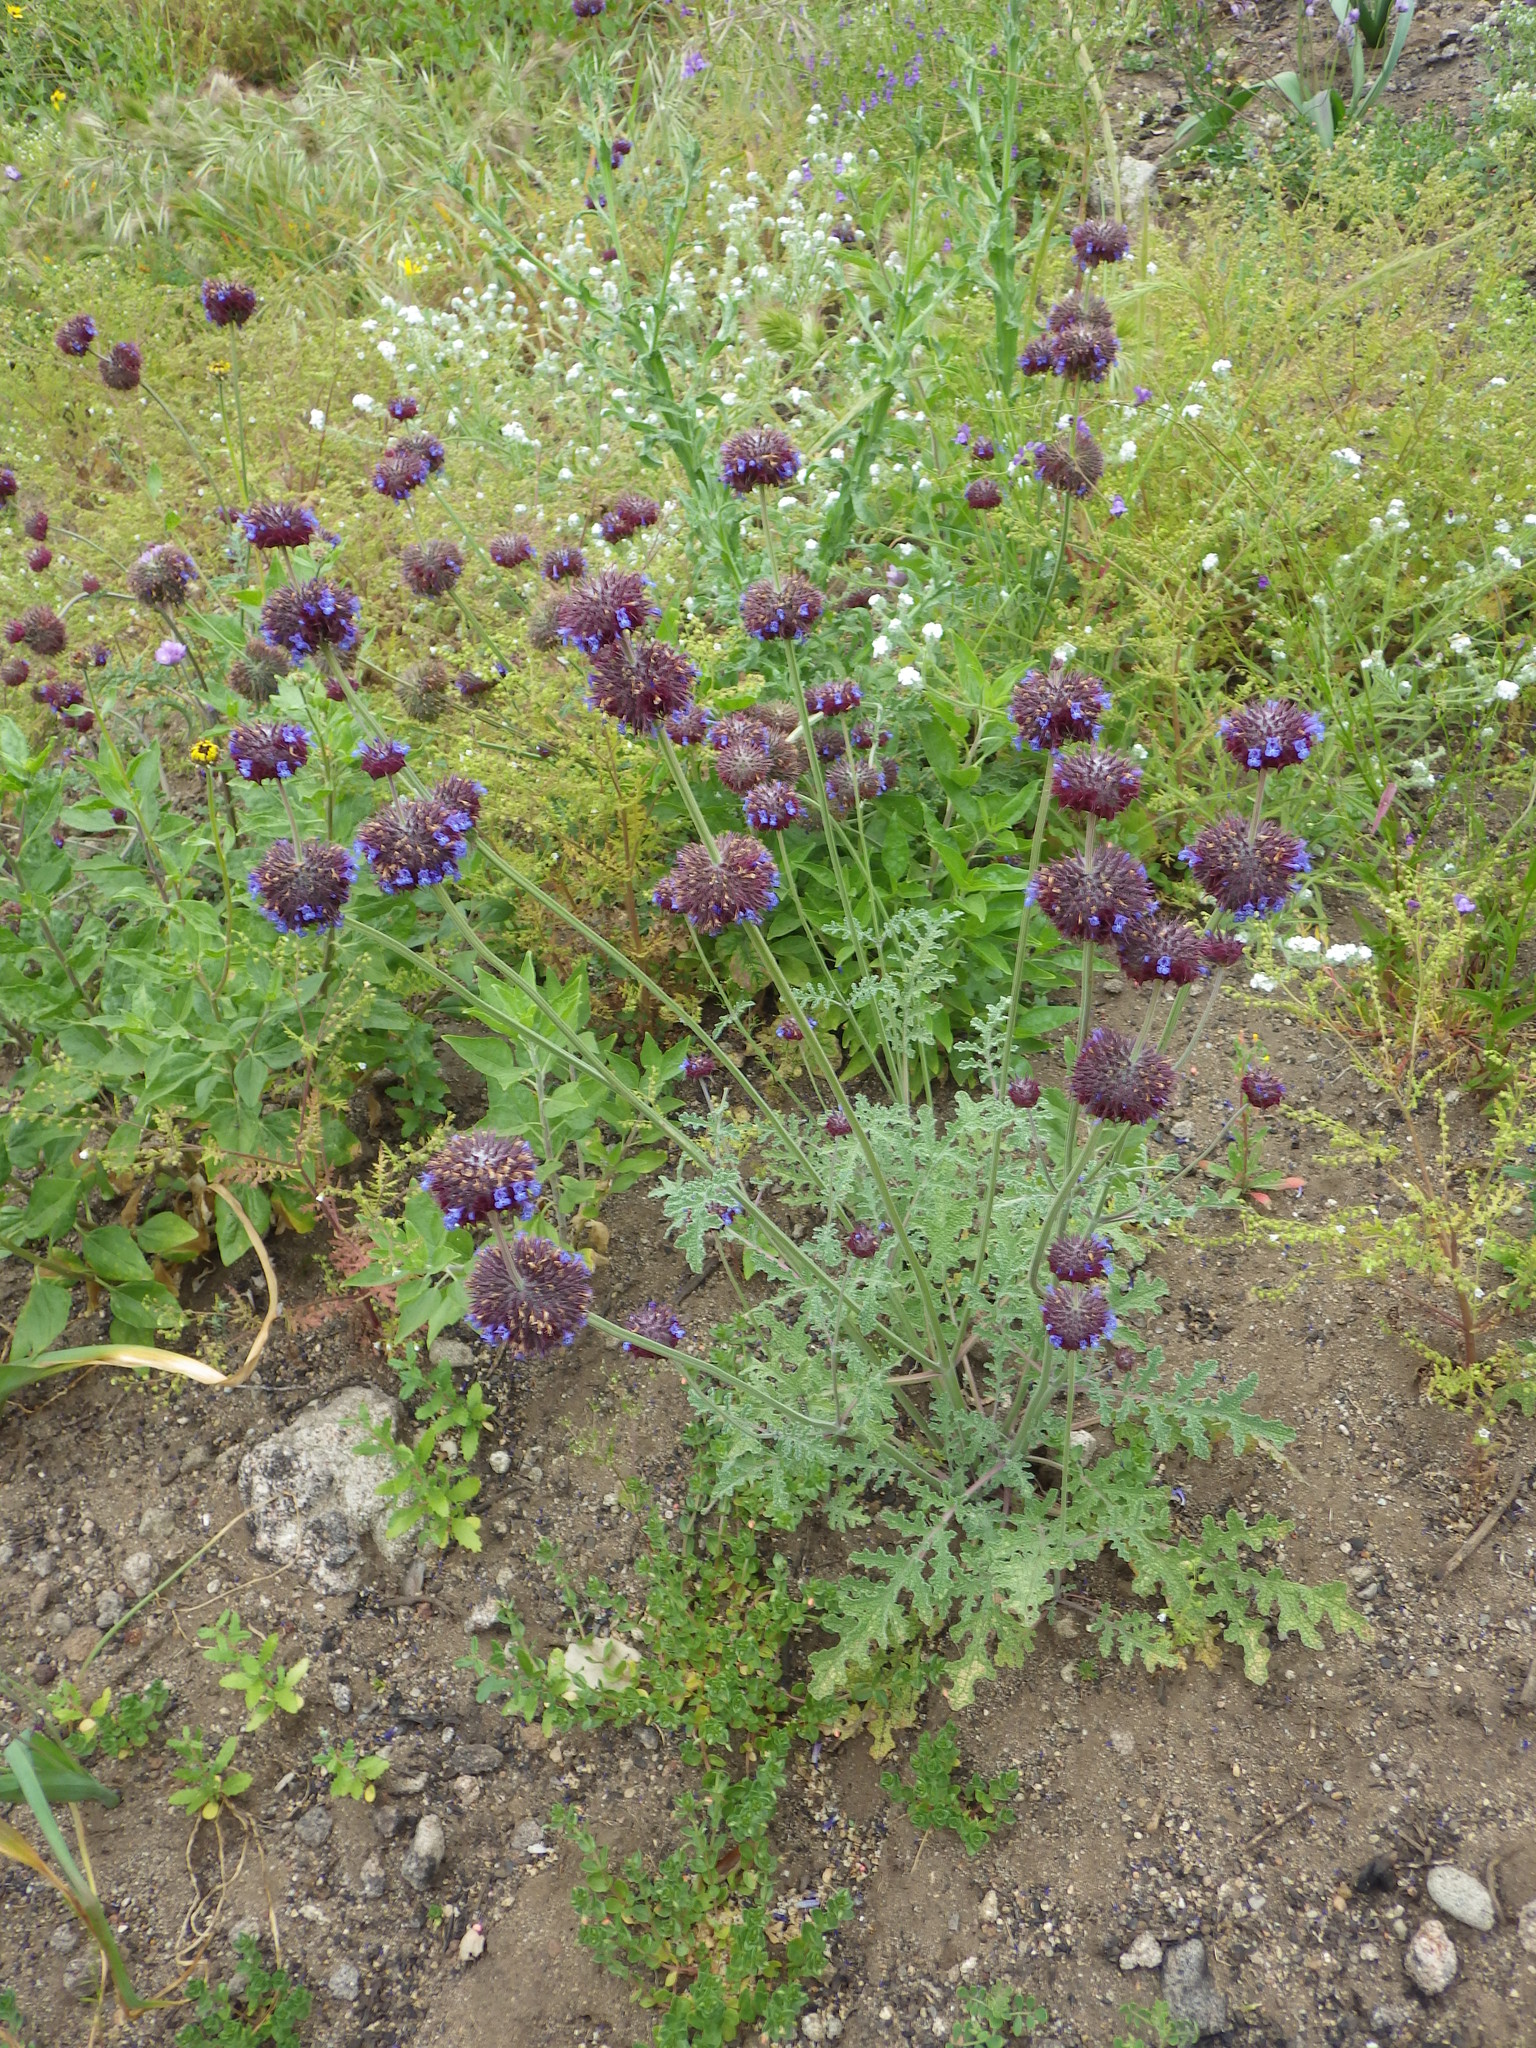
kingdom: Plantae
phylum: Tracheophyta
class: Magnoliopsida
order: Lamiales
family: Lamiaceae
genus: Salvia
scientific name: Salvia columbariae
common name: Chia
